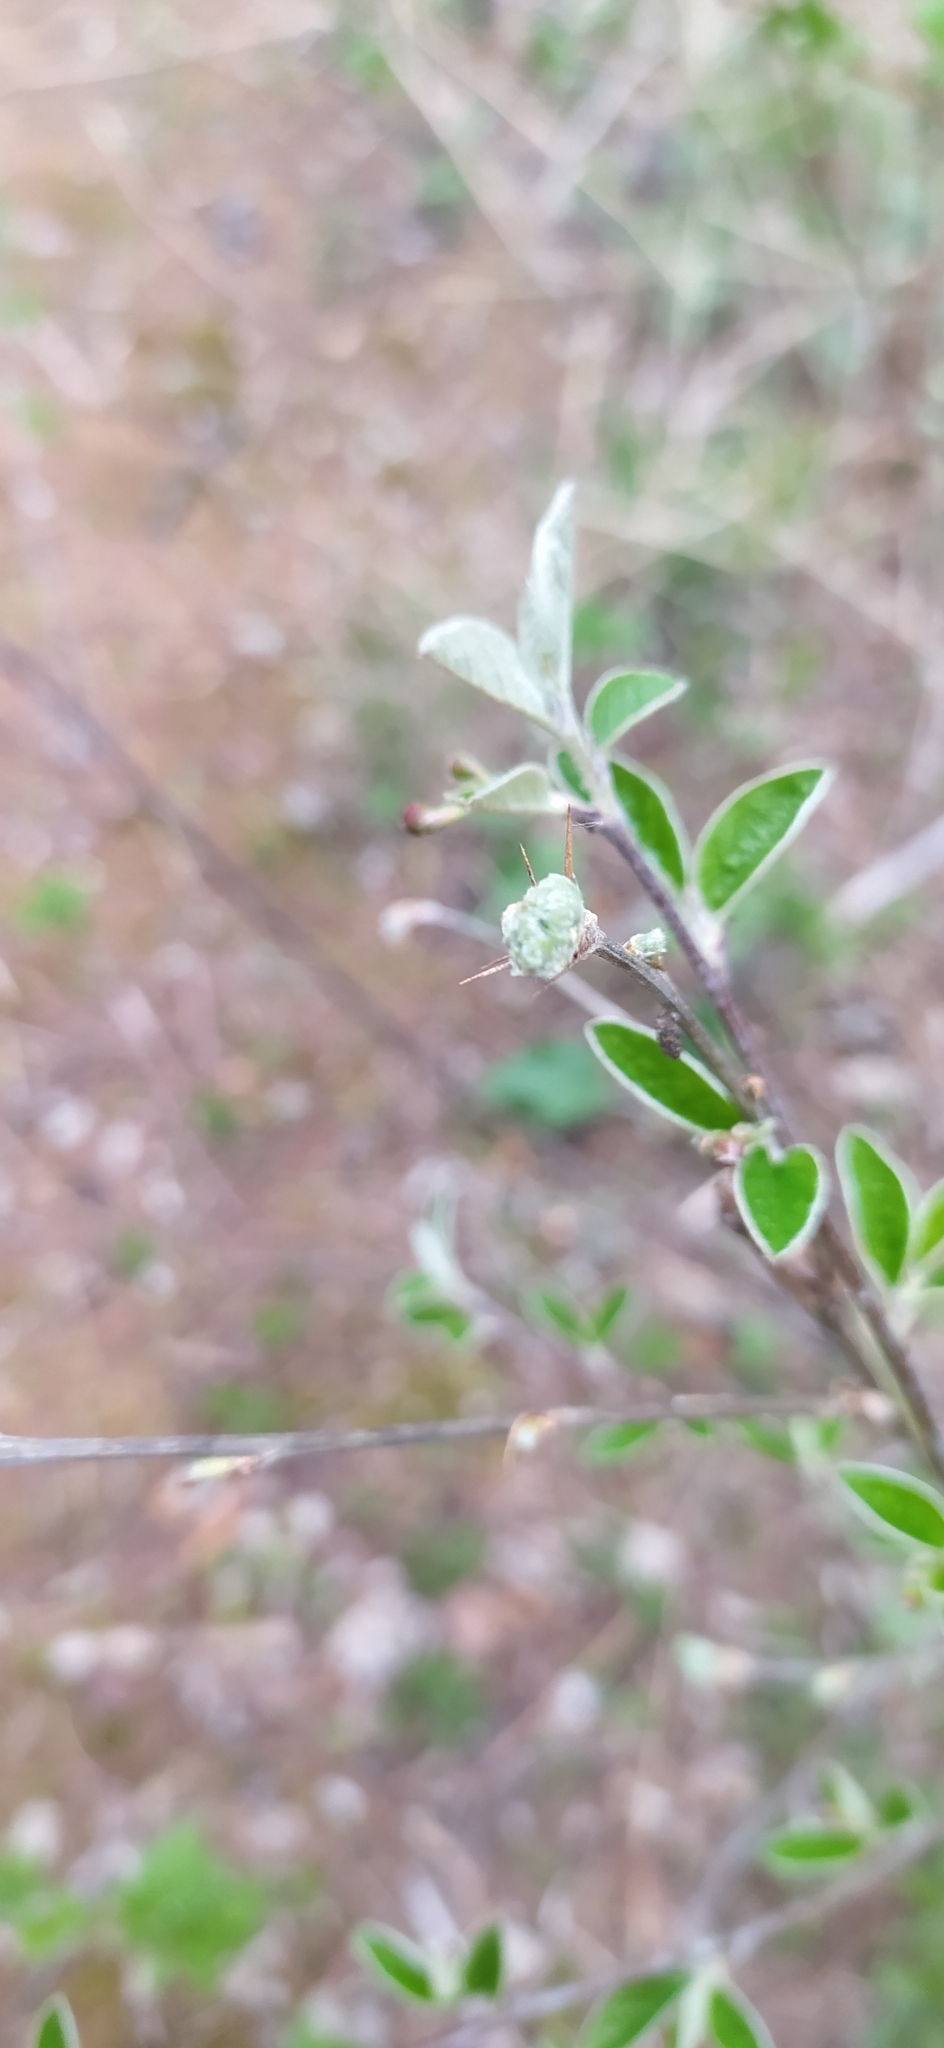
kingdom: Plantae
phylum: Tracheophyta
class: Magnoliopsida
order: Rosales
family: Rosaceae
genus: Cotoneaster
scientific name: Cotoneaster melanocarpus
